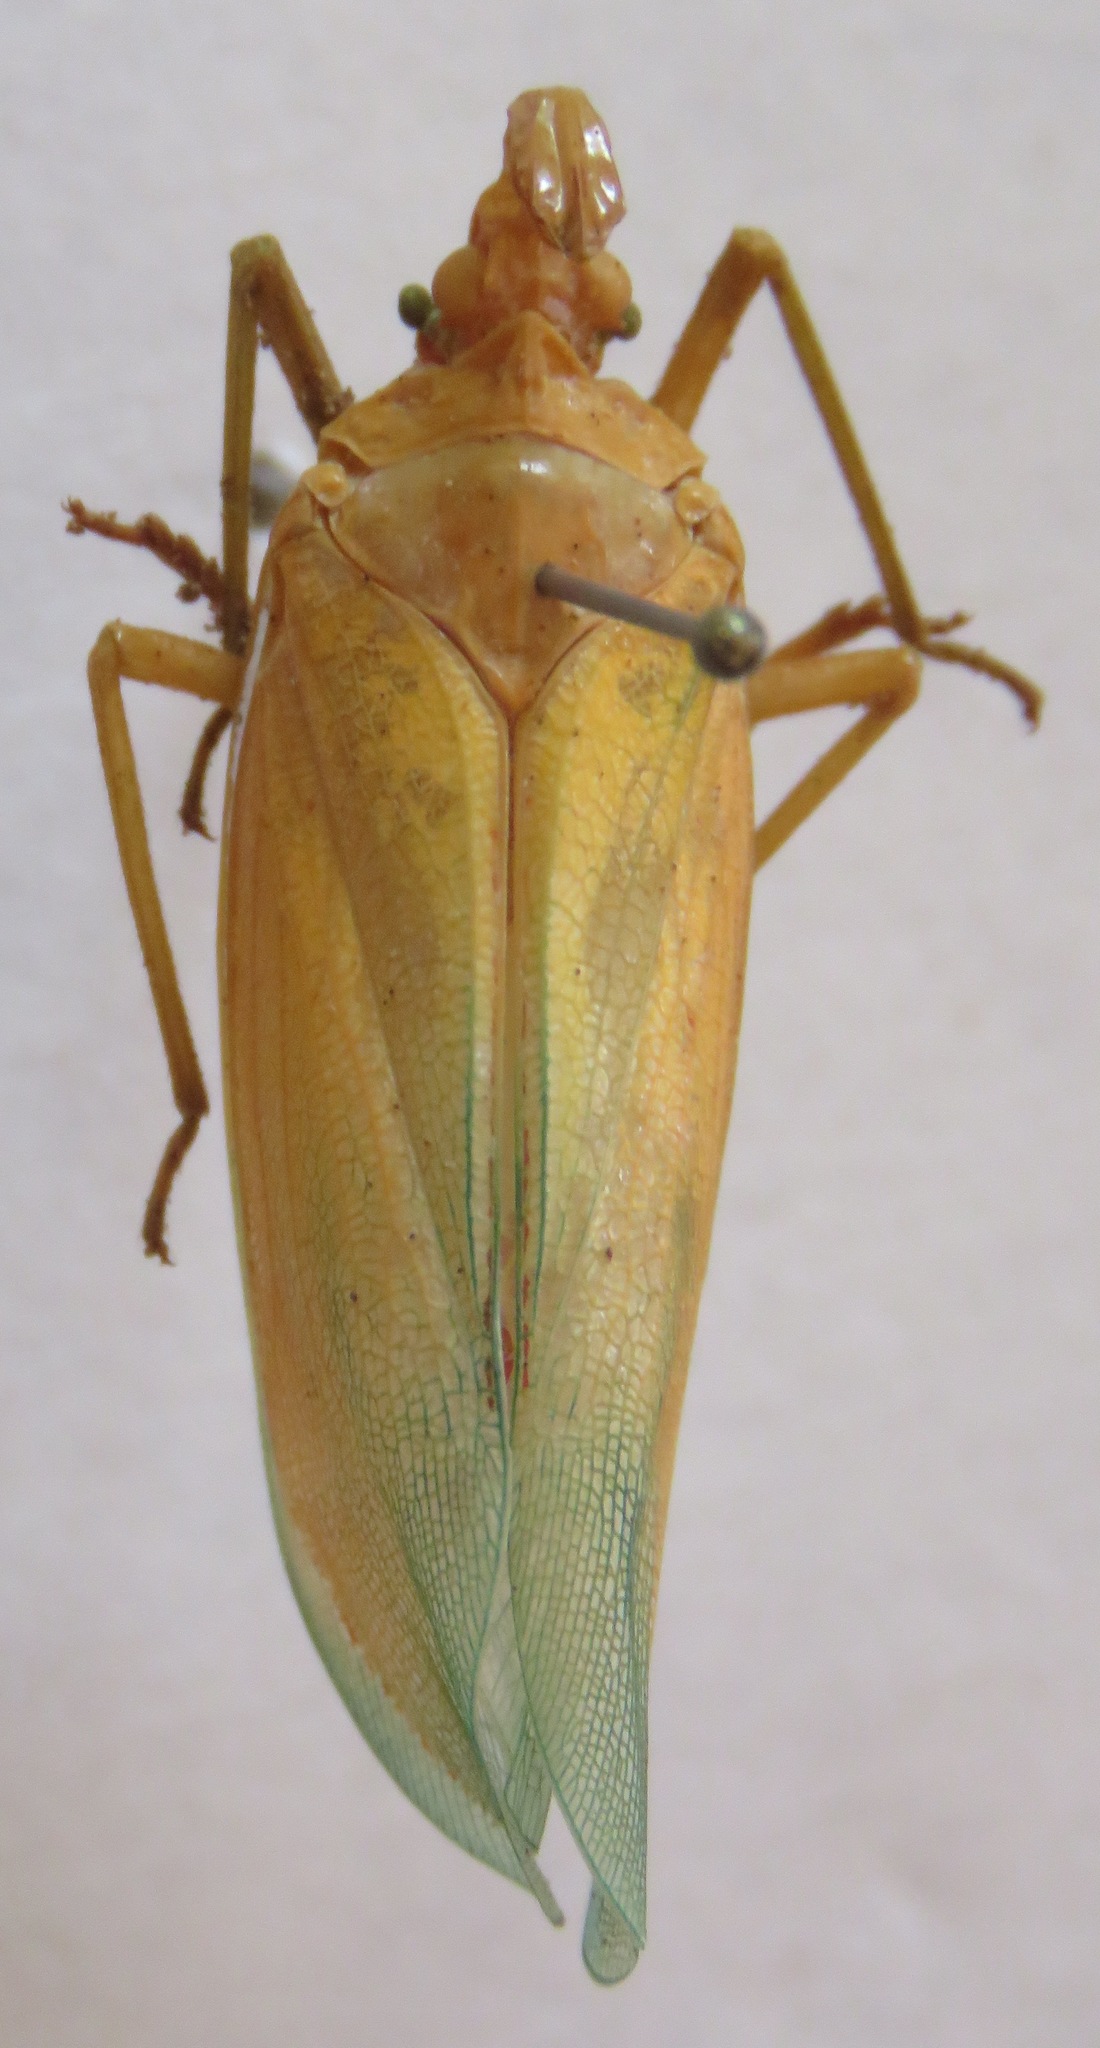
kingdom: Animalia
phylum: Arthropoda
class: Insecta
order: Hemiptera
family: Fulgoridae
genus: Enchophora
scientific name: Enchophora prasina
